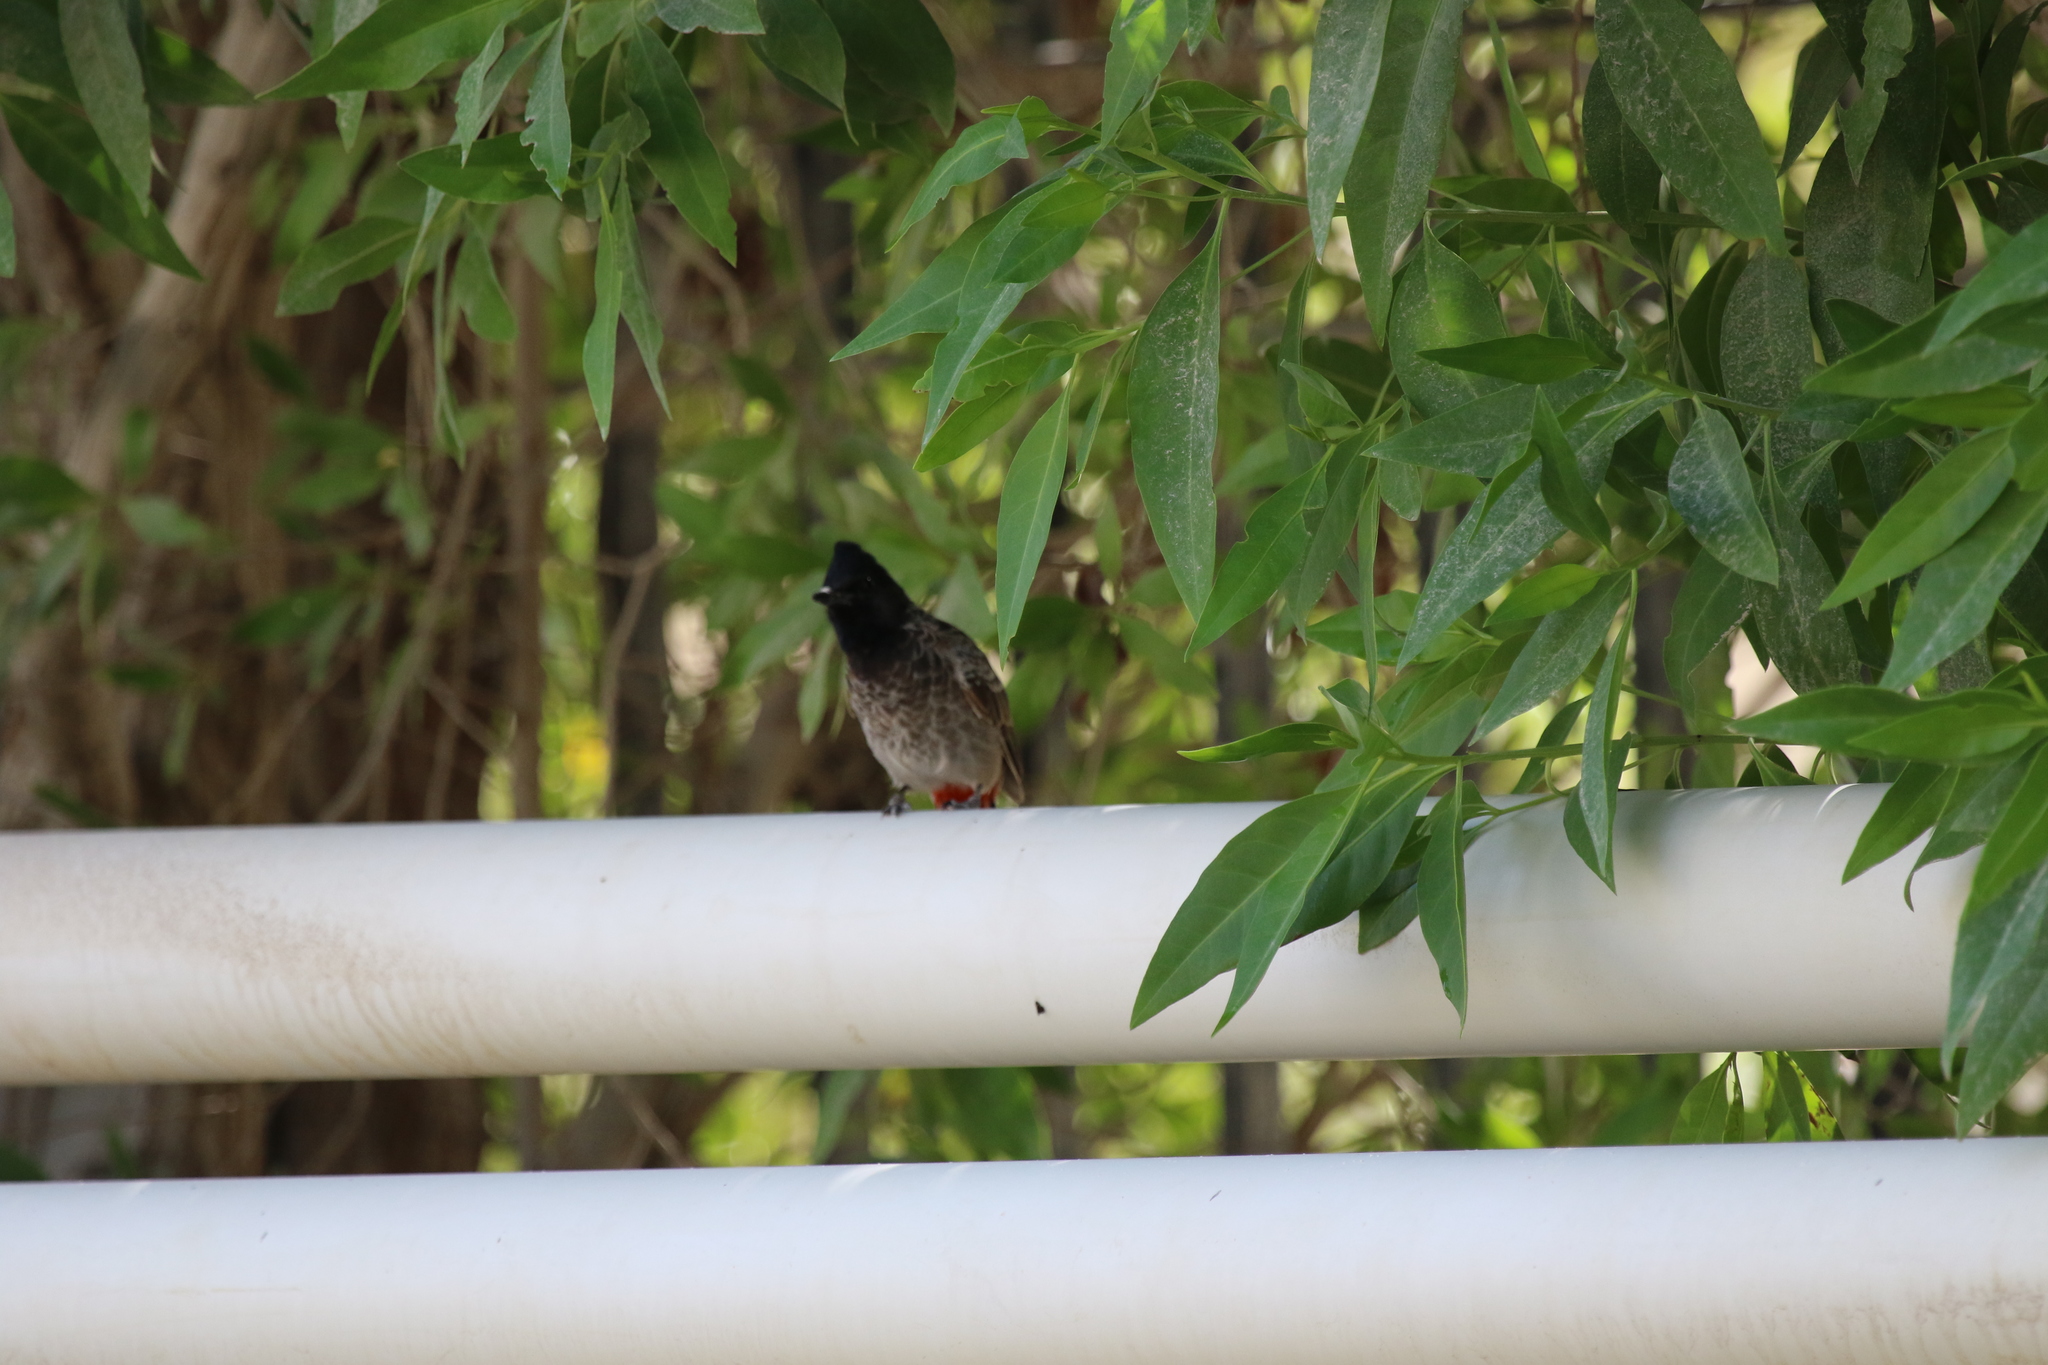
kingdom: Animalia
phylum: Chordata
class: Aves
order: Passeriformes
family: Pycnonotidae
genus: Pycnonotus
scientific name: Pycnonotus cafer
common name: Red-vented bulbul
